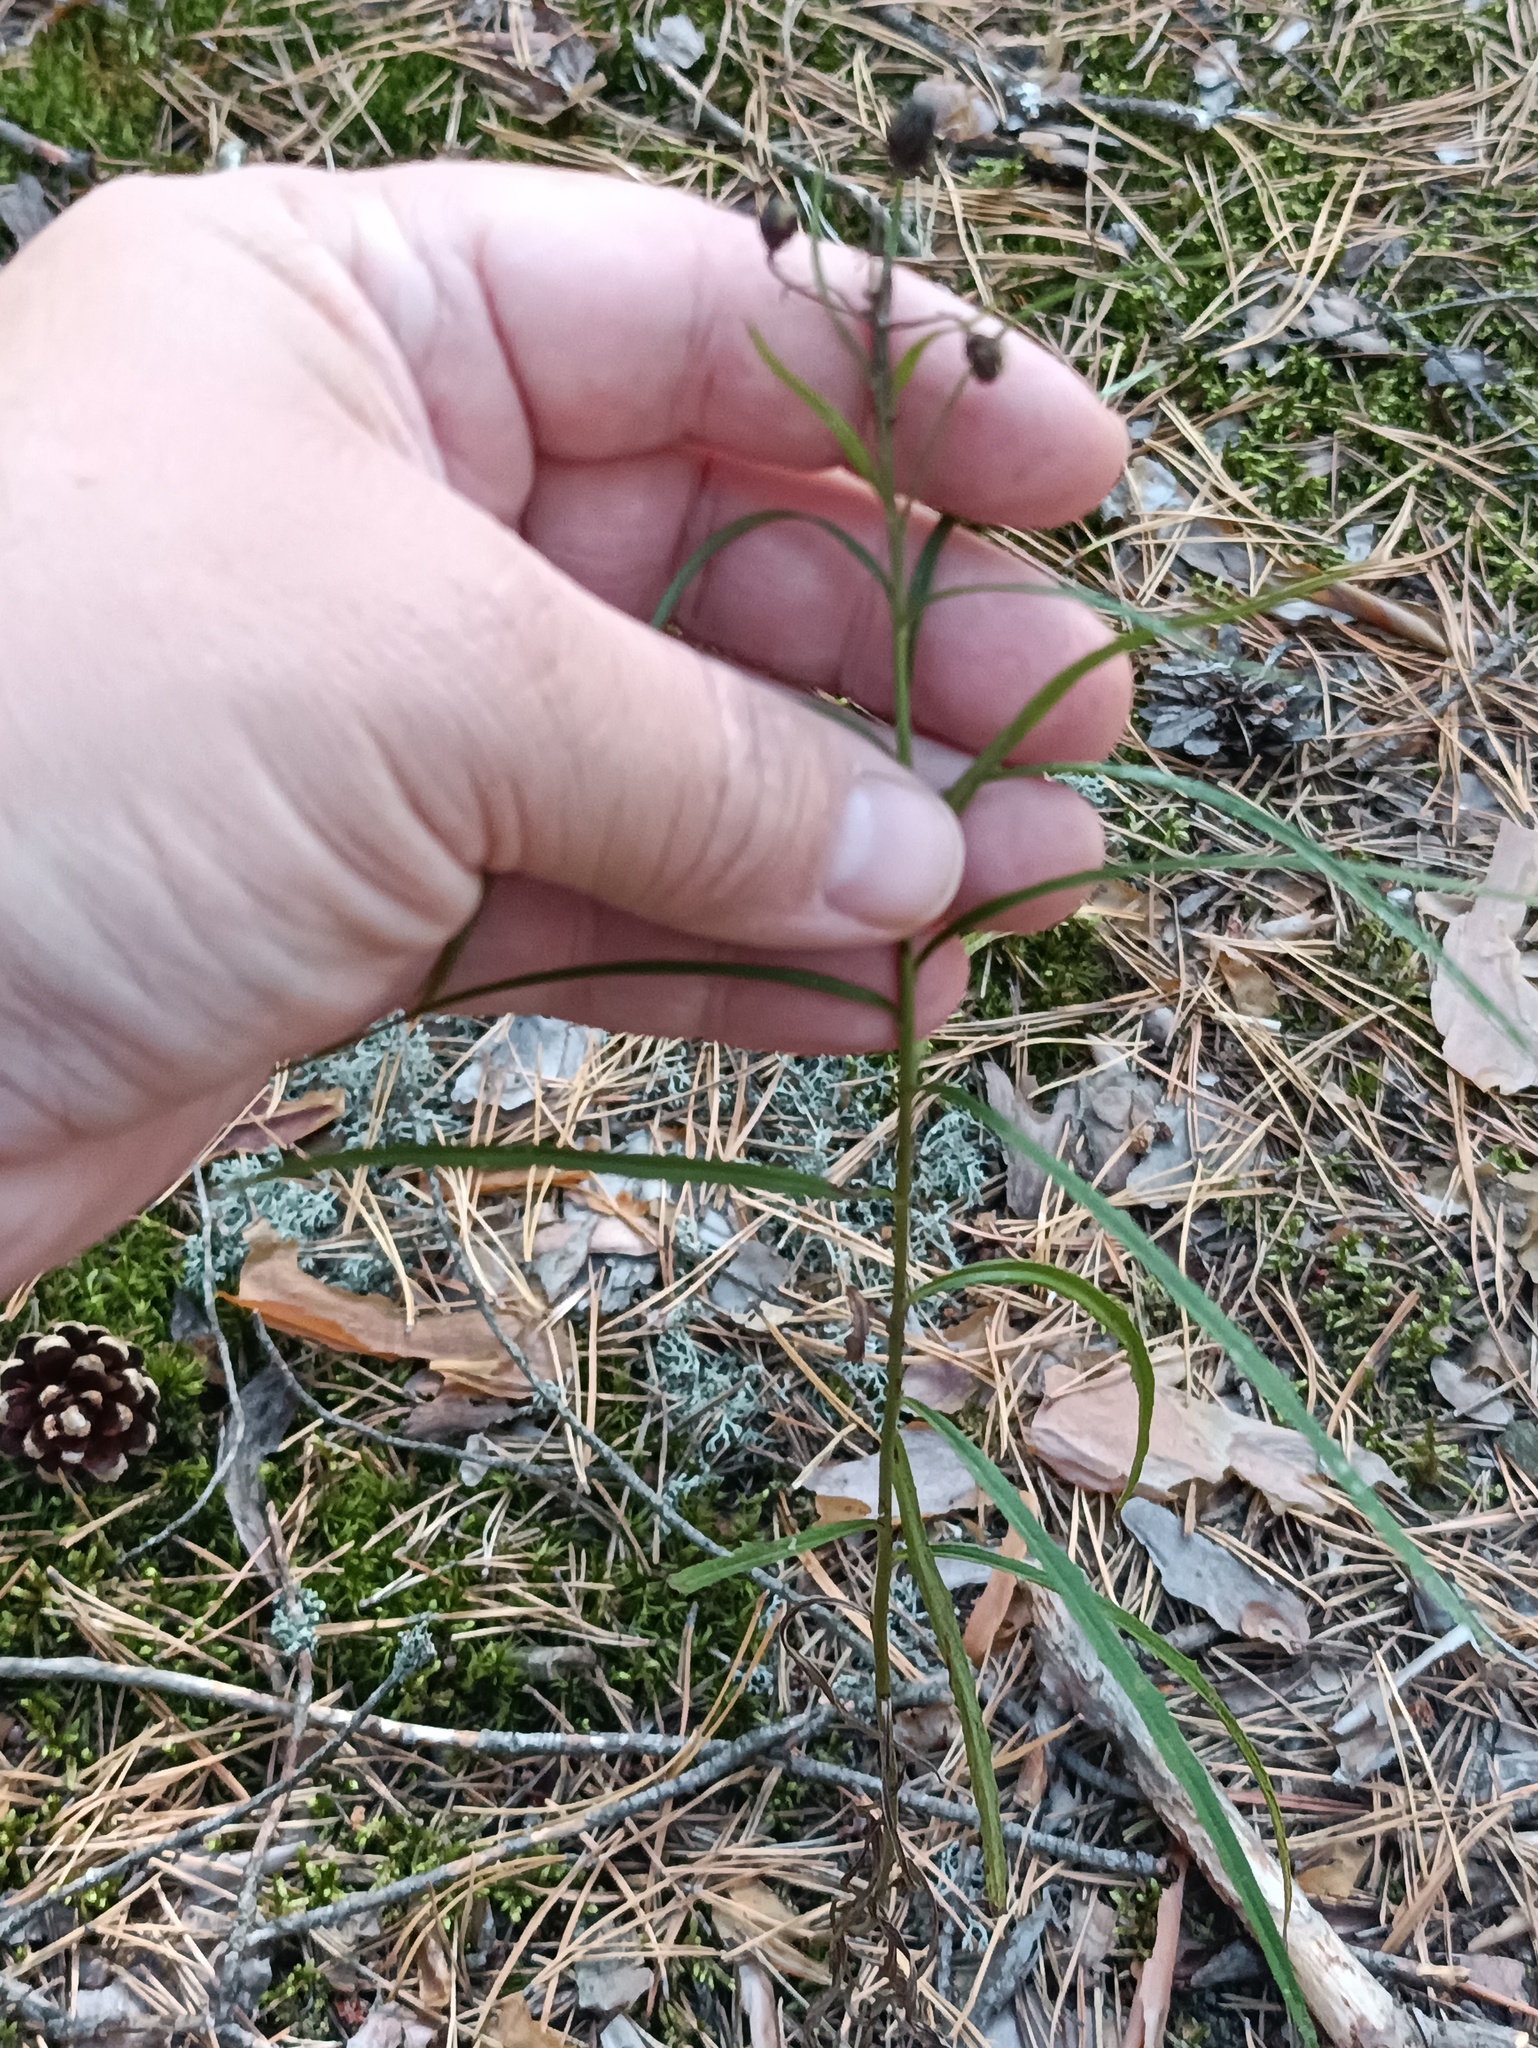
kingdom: Plantae
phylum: Tracheophyta
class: Magnoliopsida
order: Asterales
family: Asteraceae
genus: Hieracium
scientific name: Hieracium umbellatum
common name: Northern hawkweed
